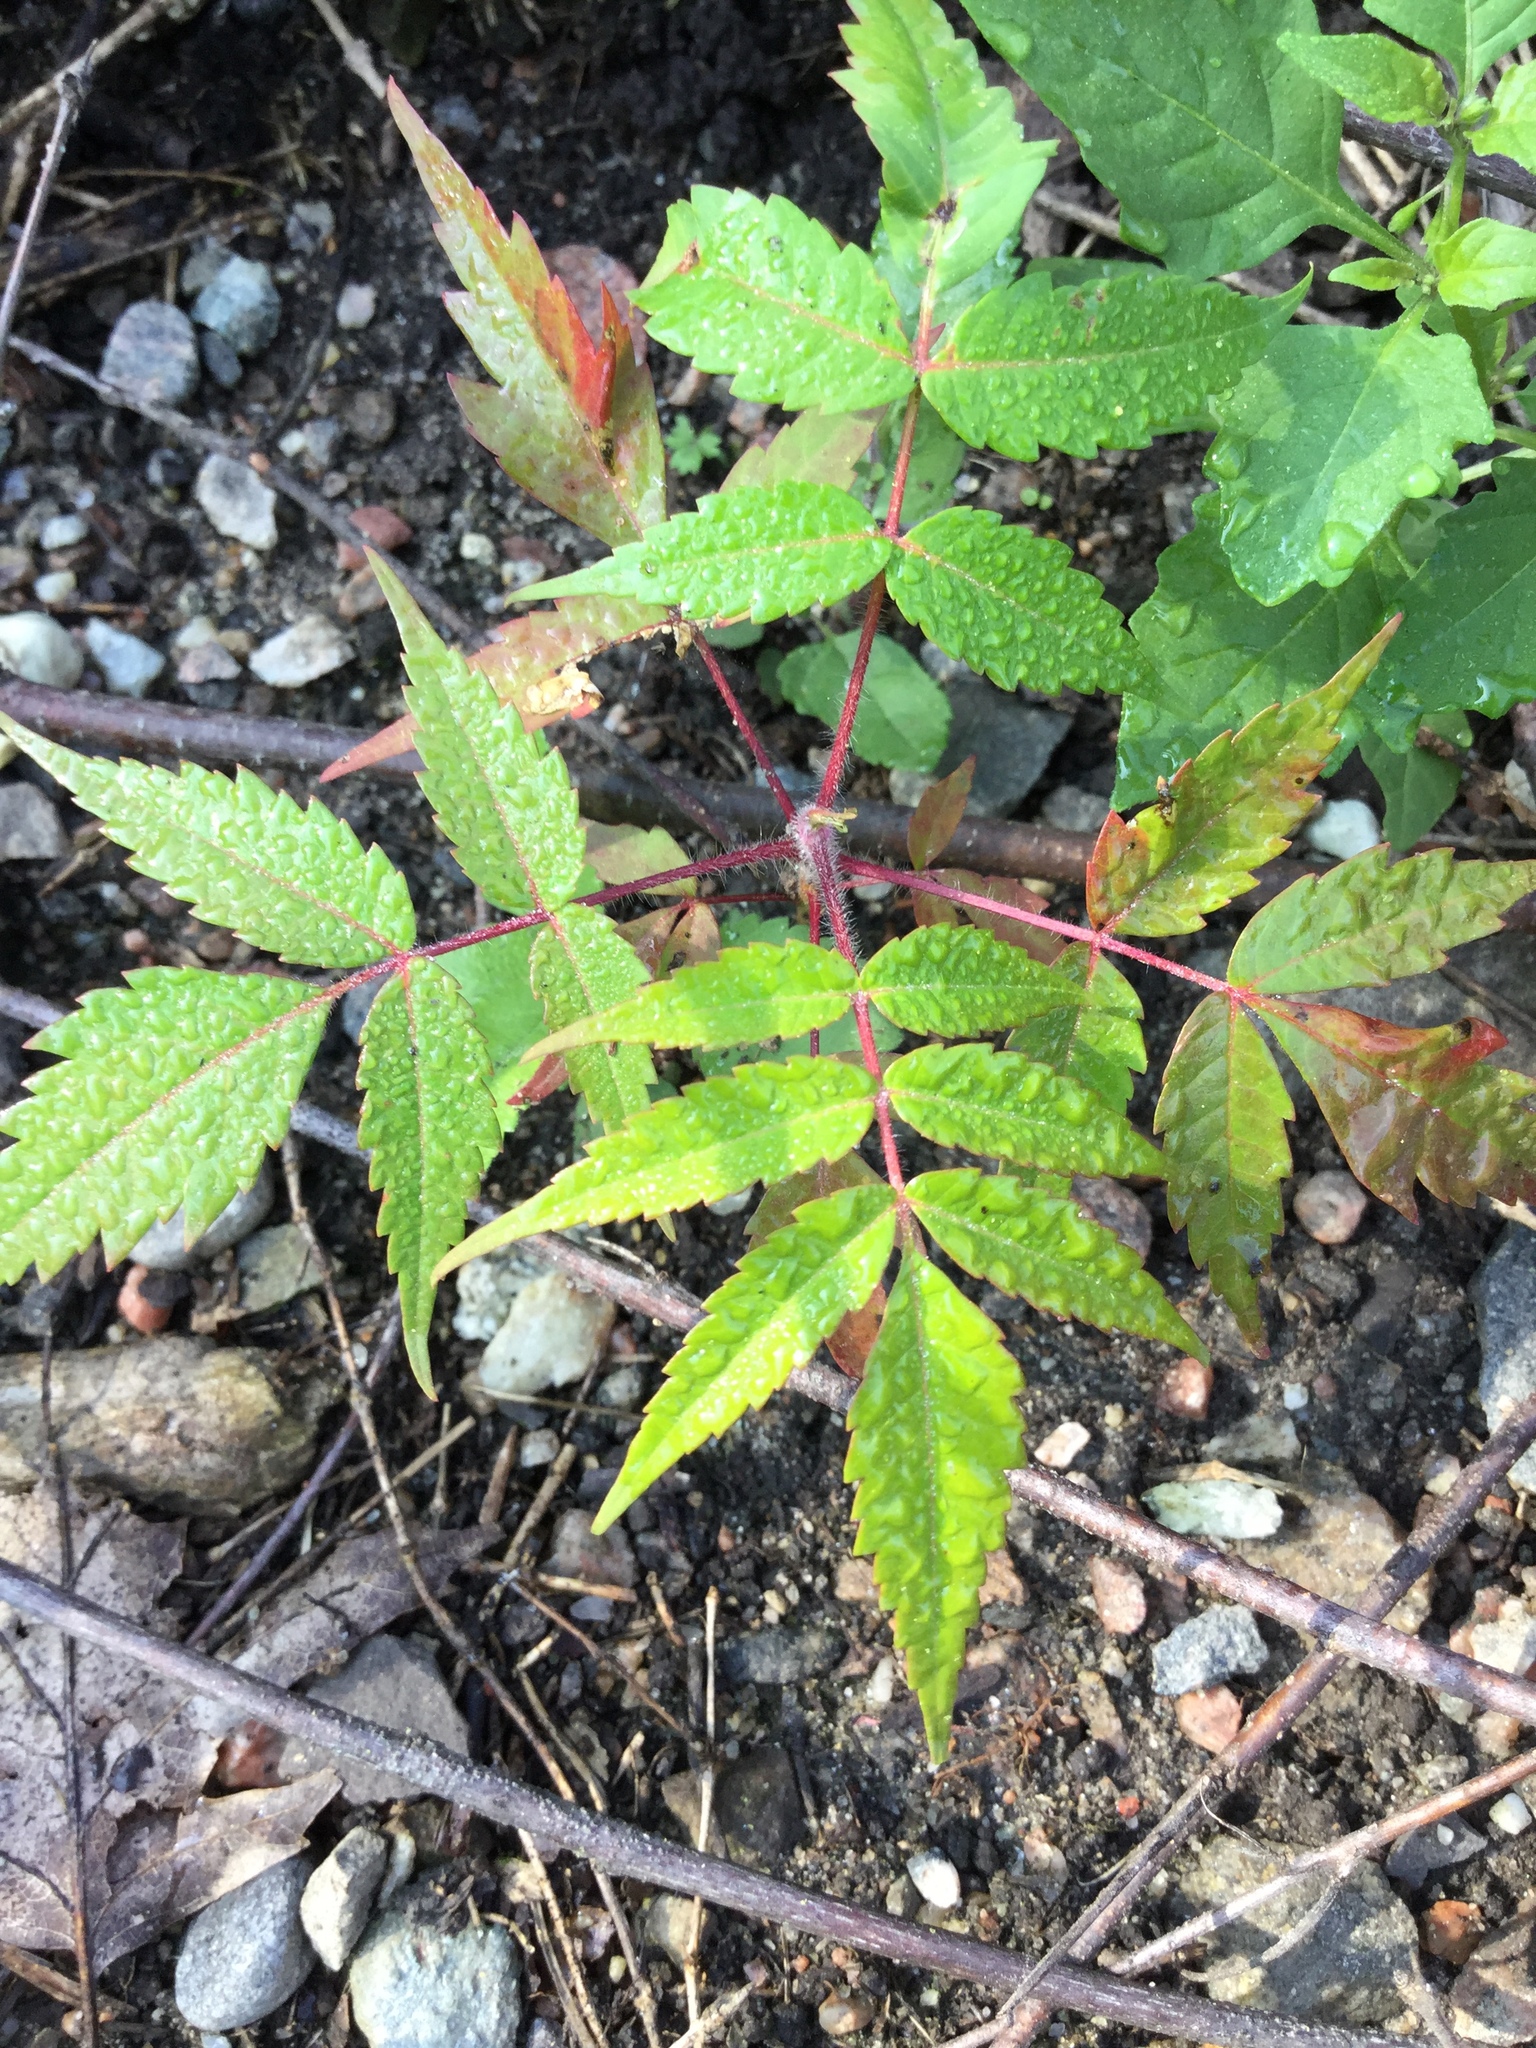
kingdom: Plantae
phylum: Tracheophyta
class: Magnoliopsida
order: Sapindales
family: Anacardiaceae
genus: Rhus
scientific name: Rhus typhina
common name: Staghorn sumac
